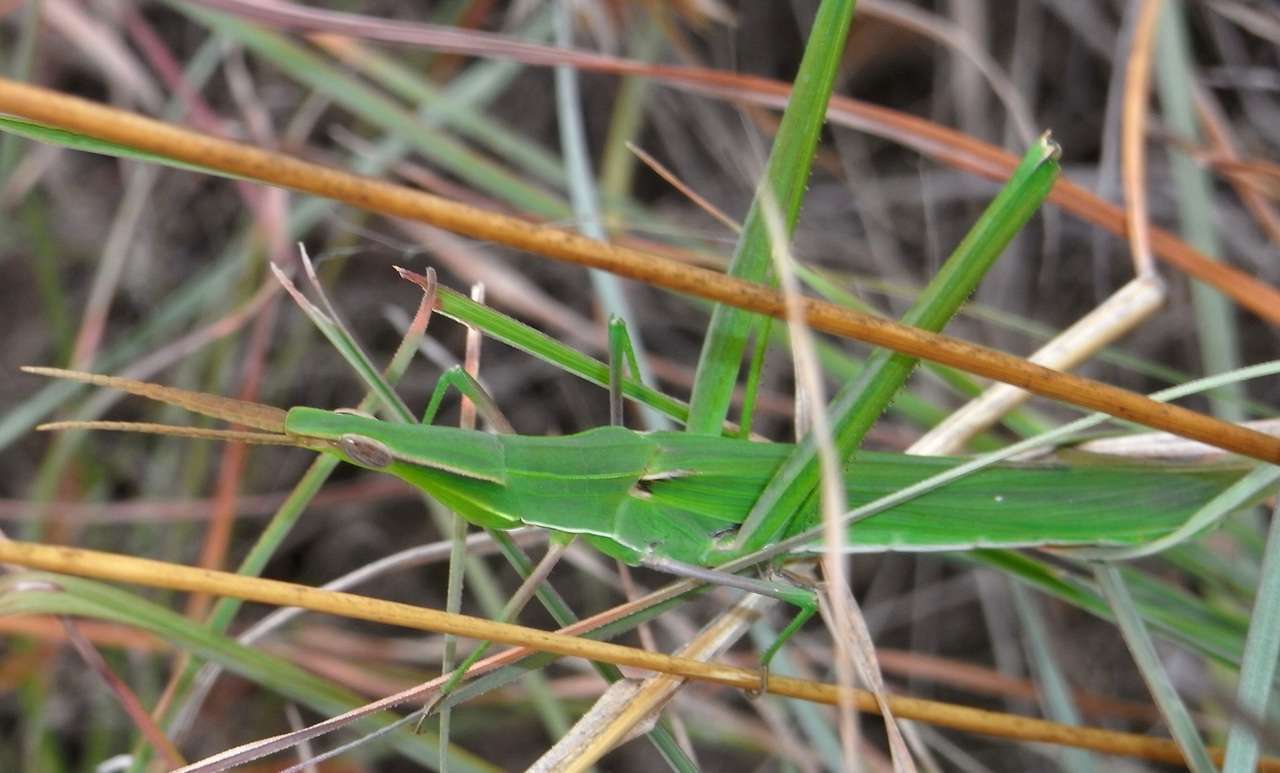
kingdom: Animalia
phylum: Arthropoda
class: Insecta
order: Orthoptera
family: Acrididae
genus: Acrida
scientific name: Acrida conica
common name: Giant green slantface
